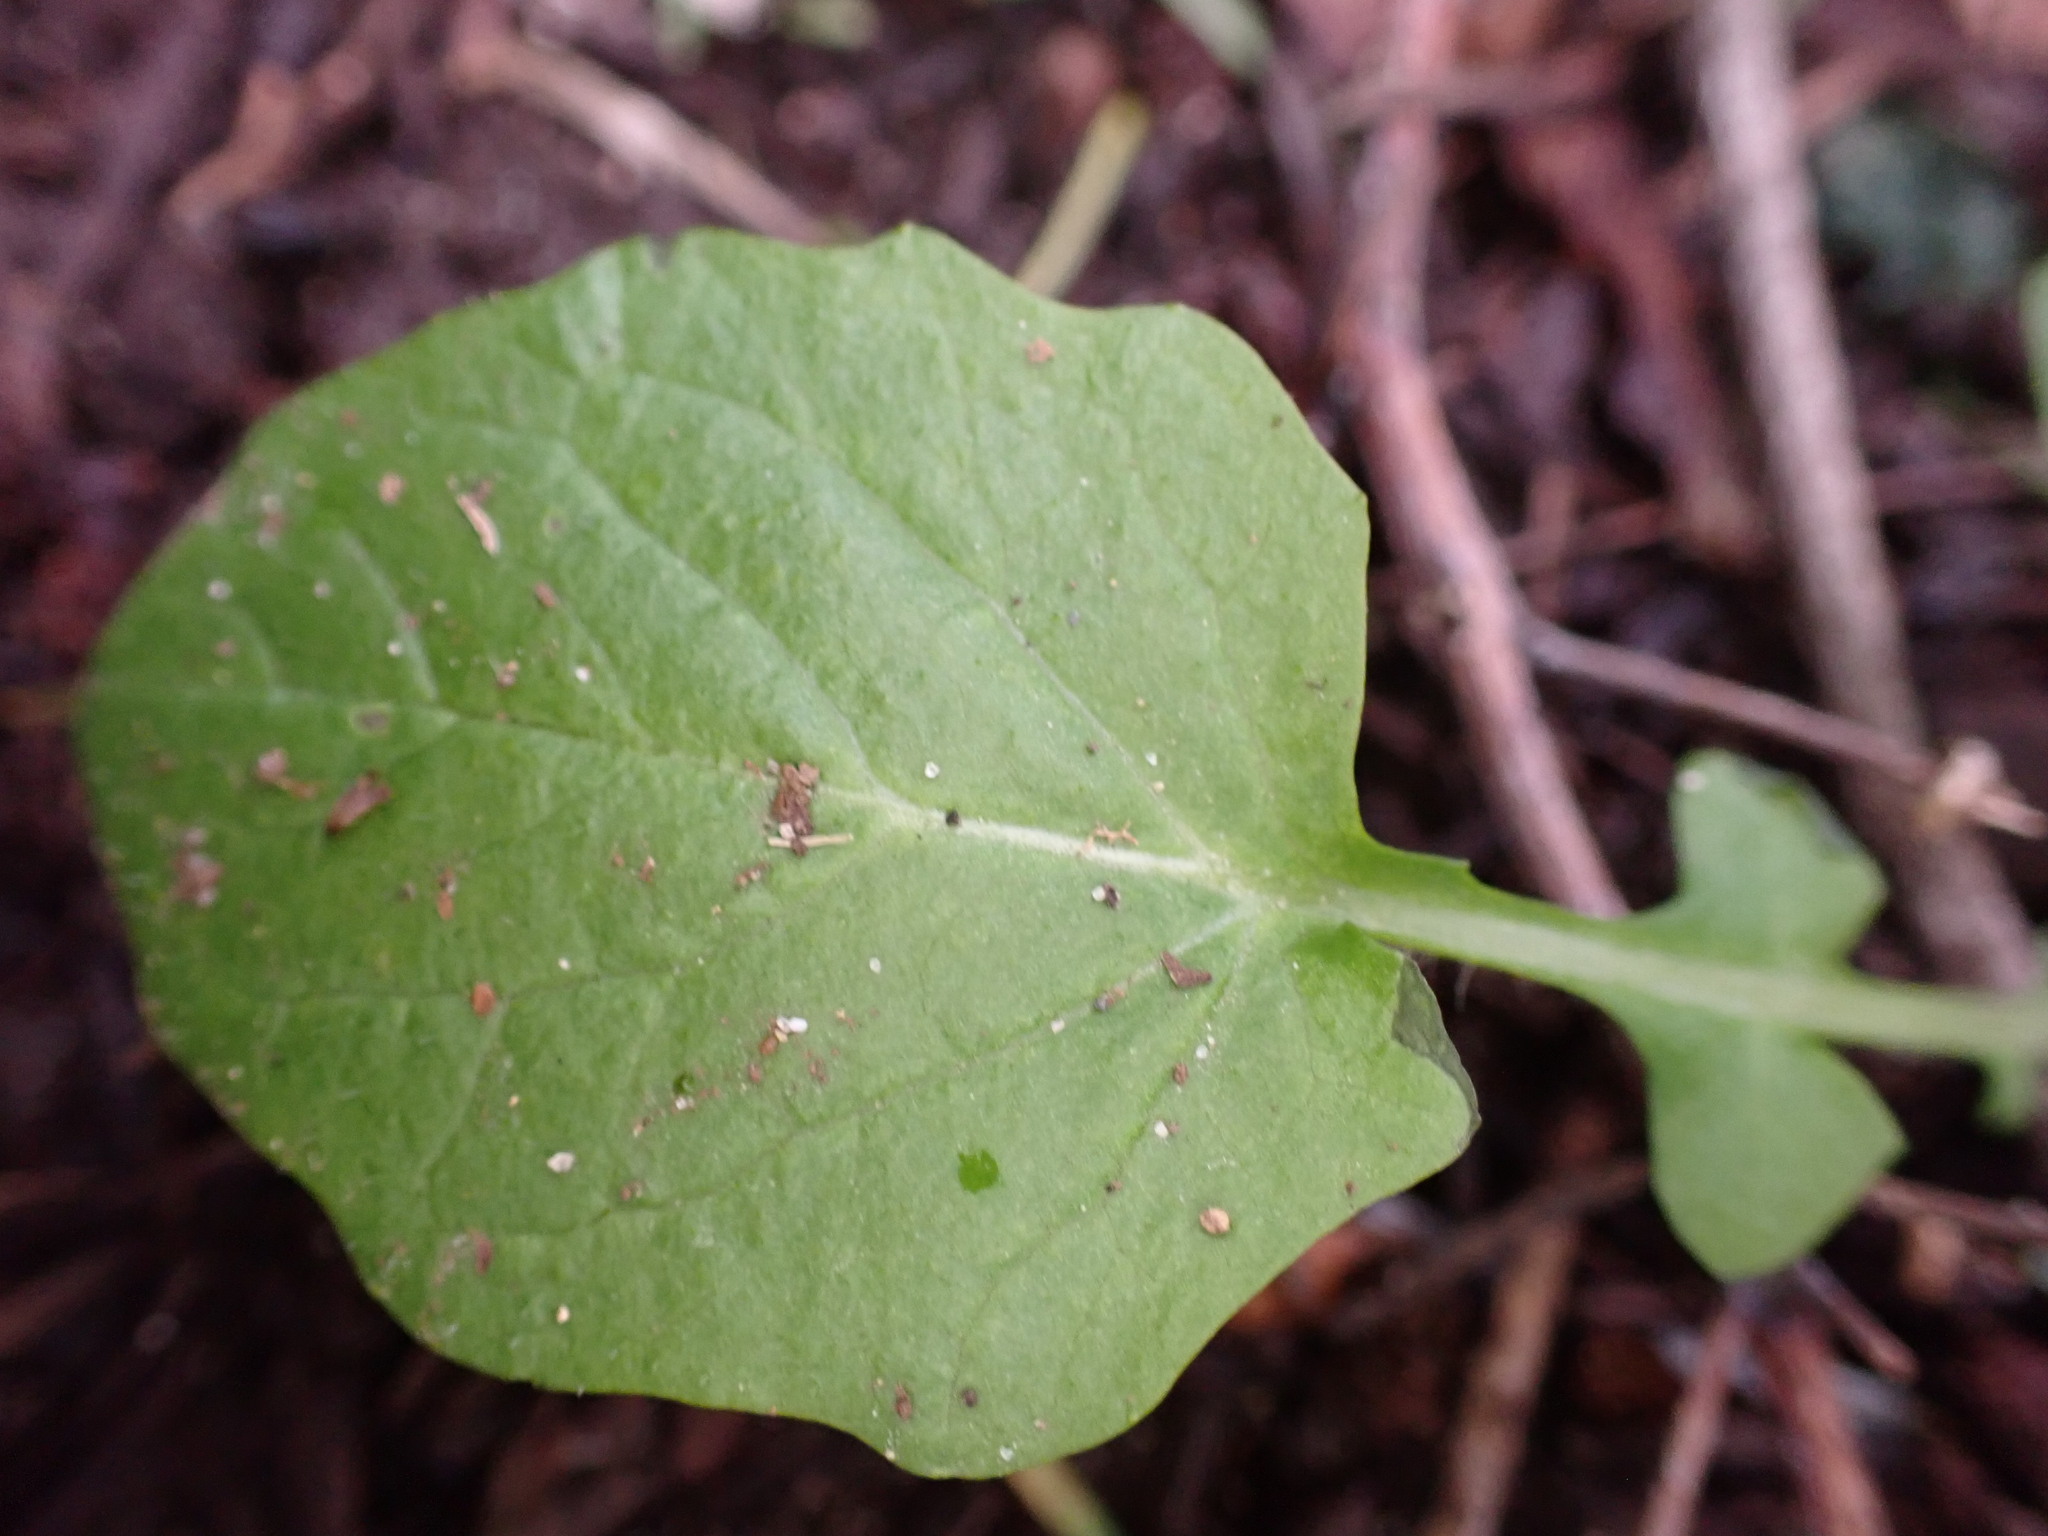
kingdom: Plantae
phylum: Tracheophyta
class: Magnoliopsida
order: Asterales
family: Asteraceae
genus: Lapsana
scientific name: Lapsana communis
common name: Nipplewort
